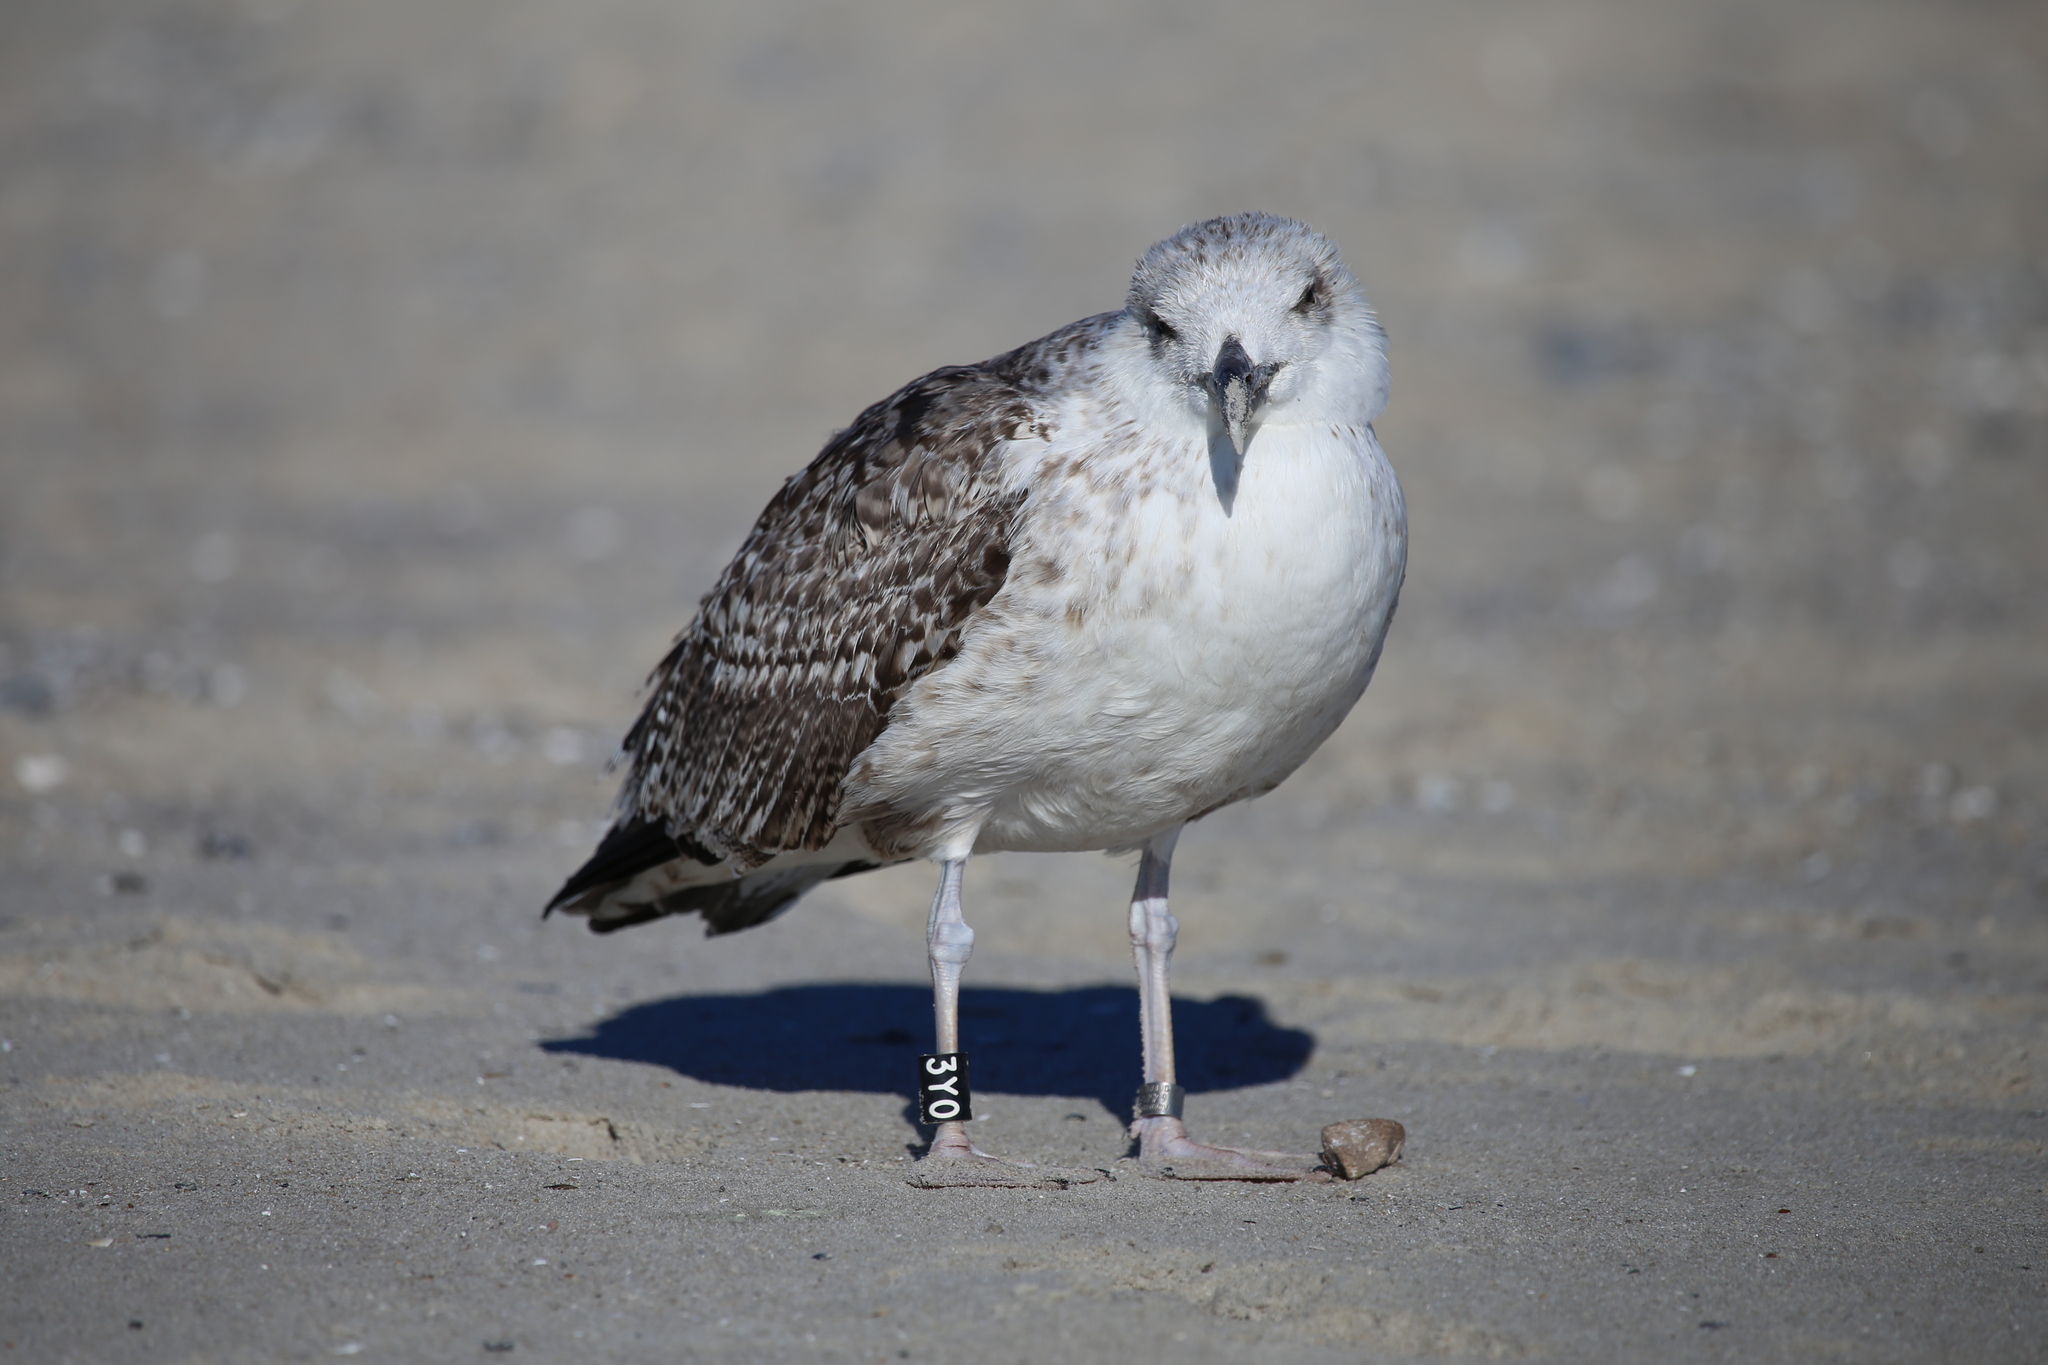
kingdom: Animalia
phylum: Chordata
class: Aves
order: Charadriiformes
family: Laridae
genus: Larus
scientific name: Larus marinus
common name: Great black-backed gull
